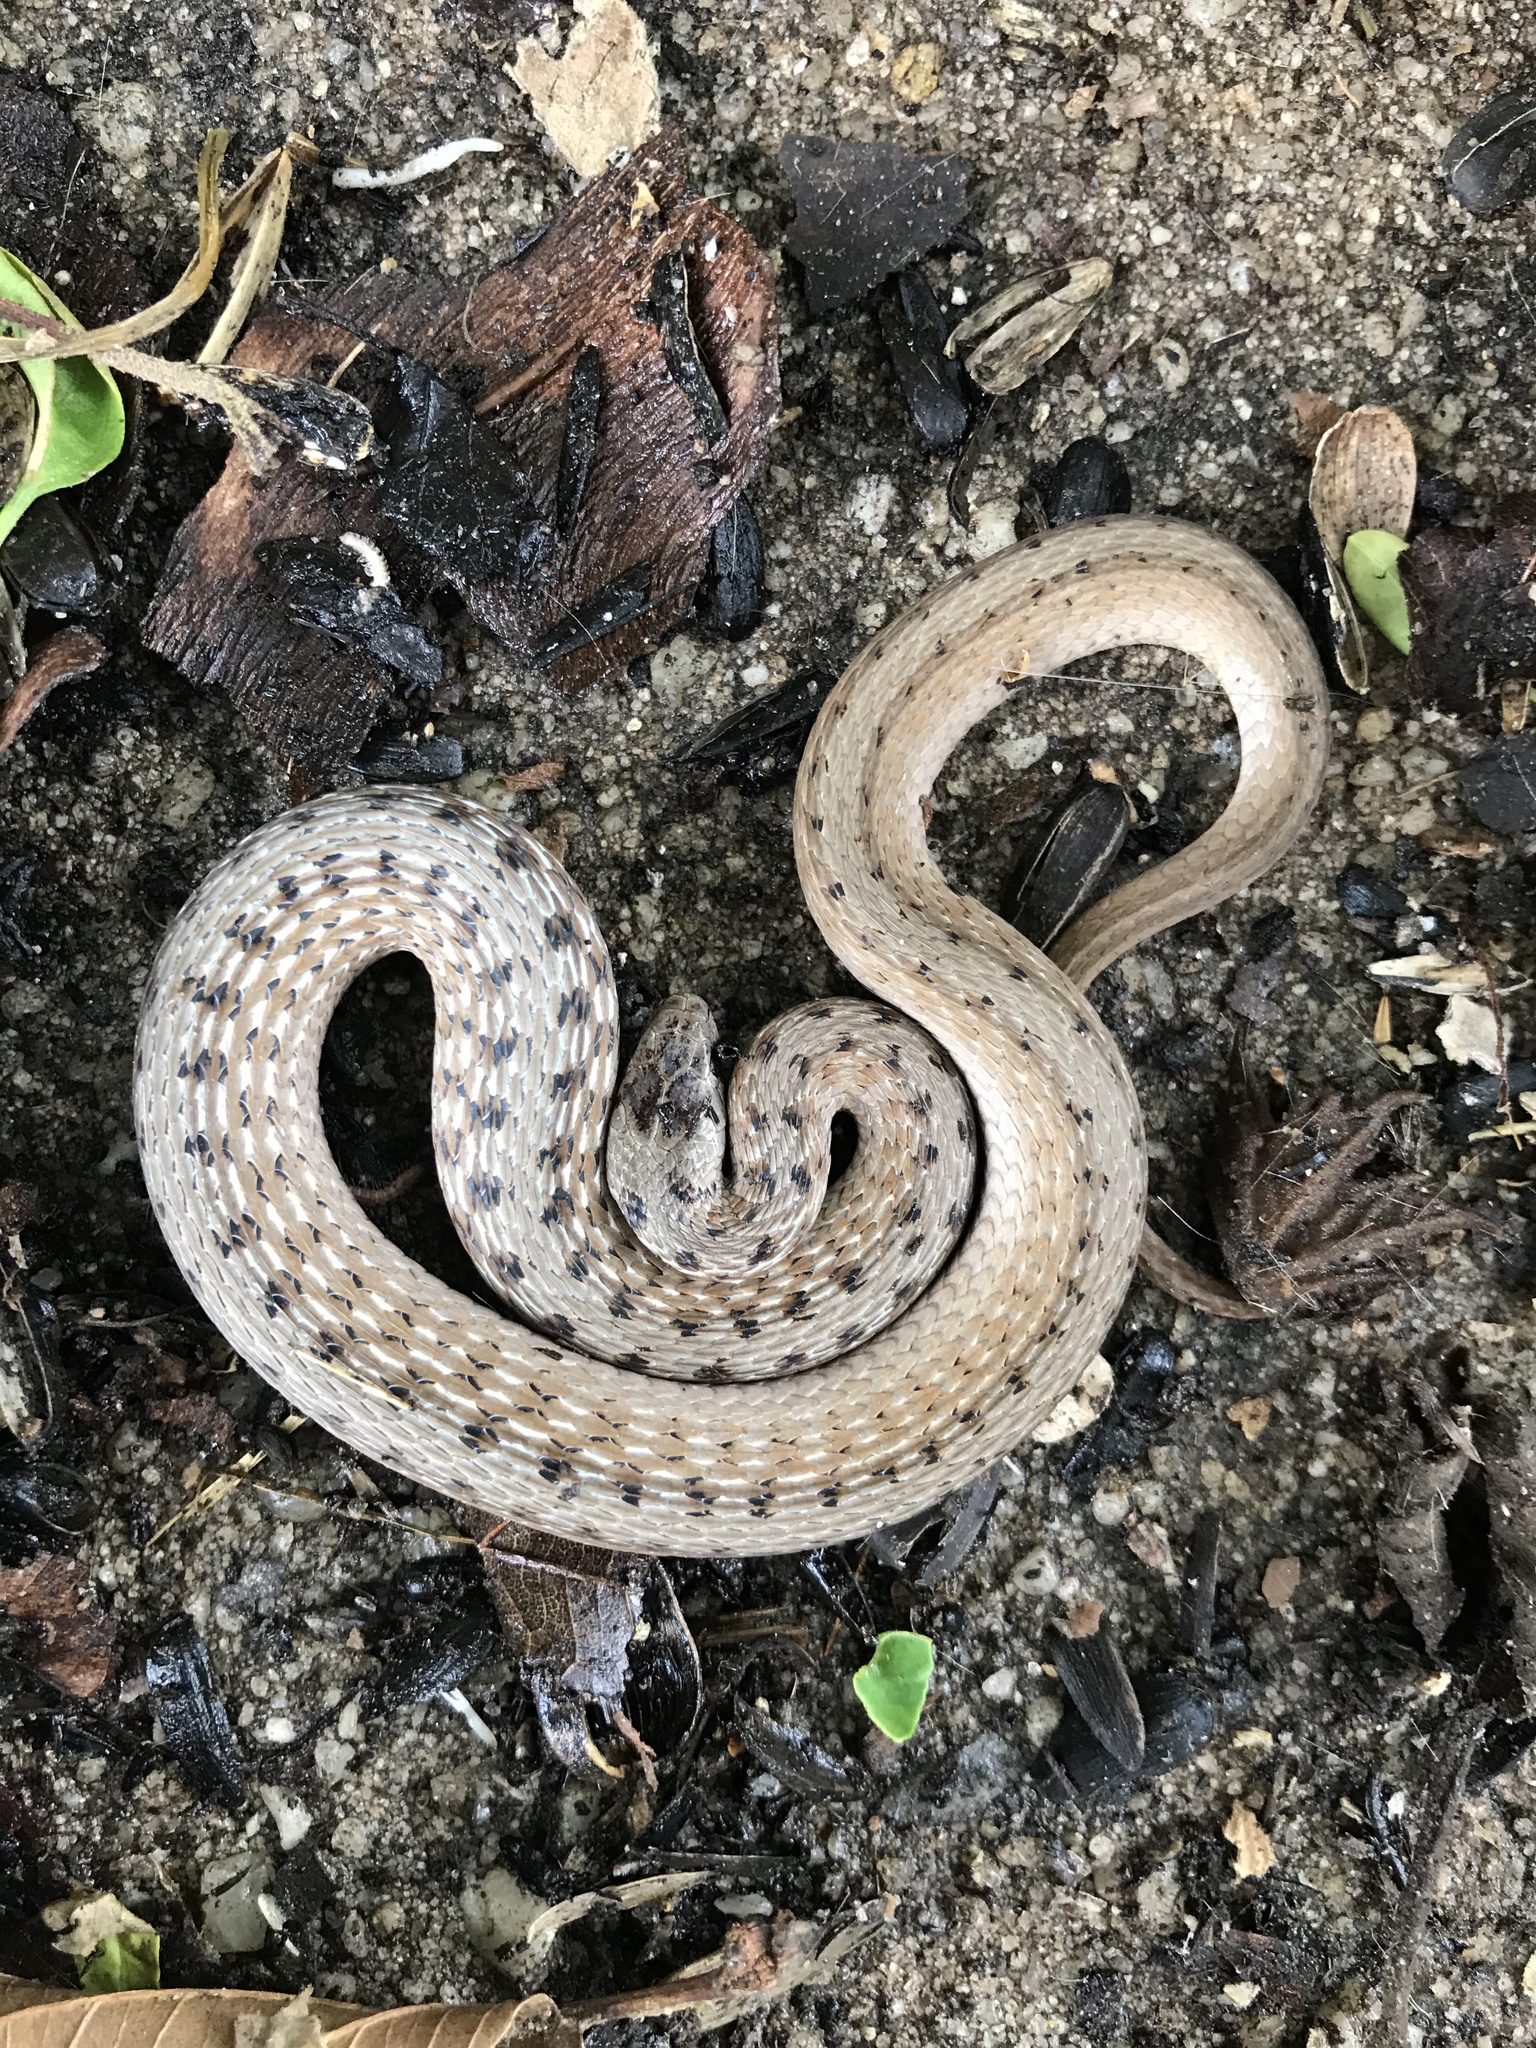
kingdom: Animalia
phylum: Chordata
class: Squamata
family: Colubridae
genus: Storeria
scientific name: Storeria dekayi
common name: (dekay’s) brown snake
